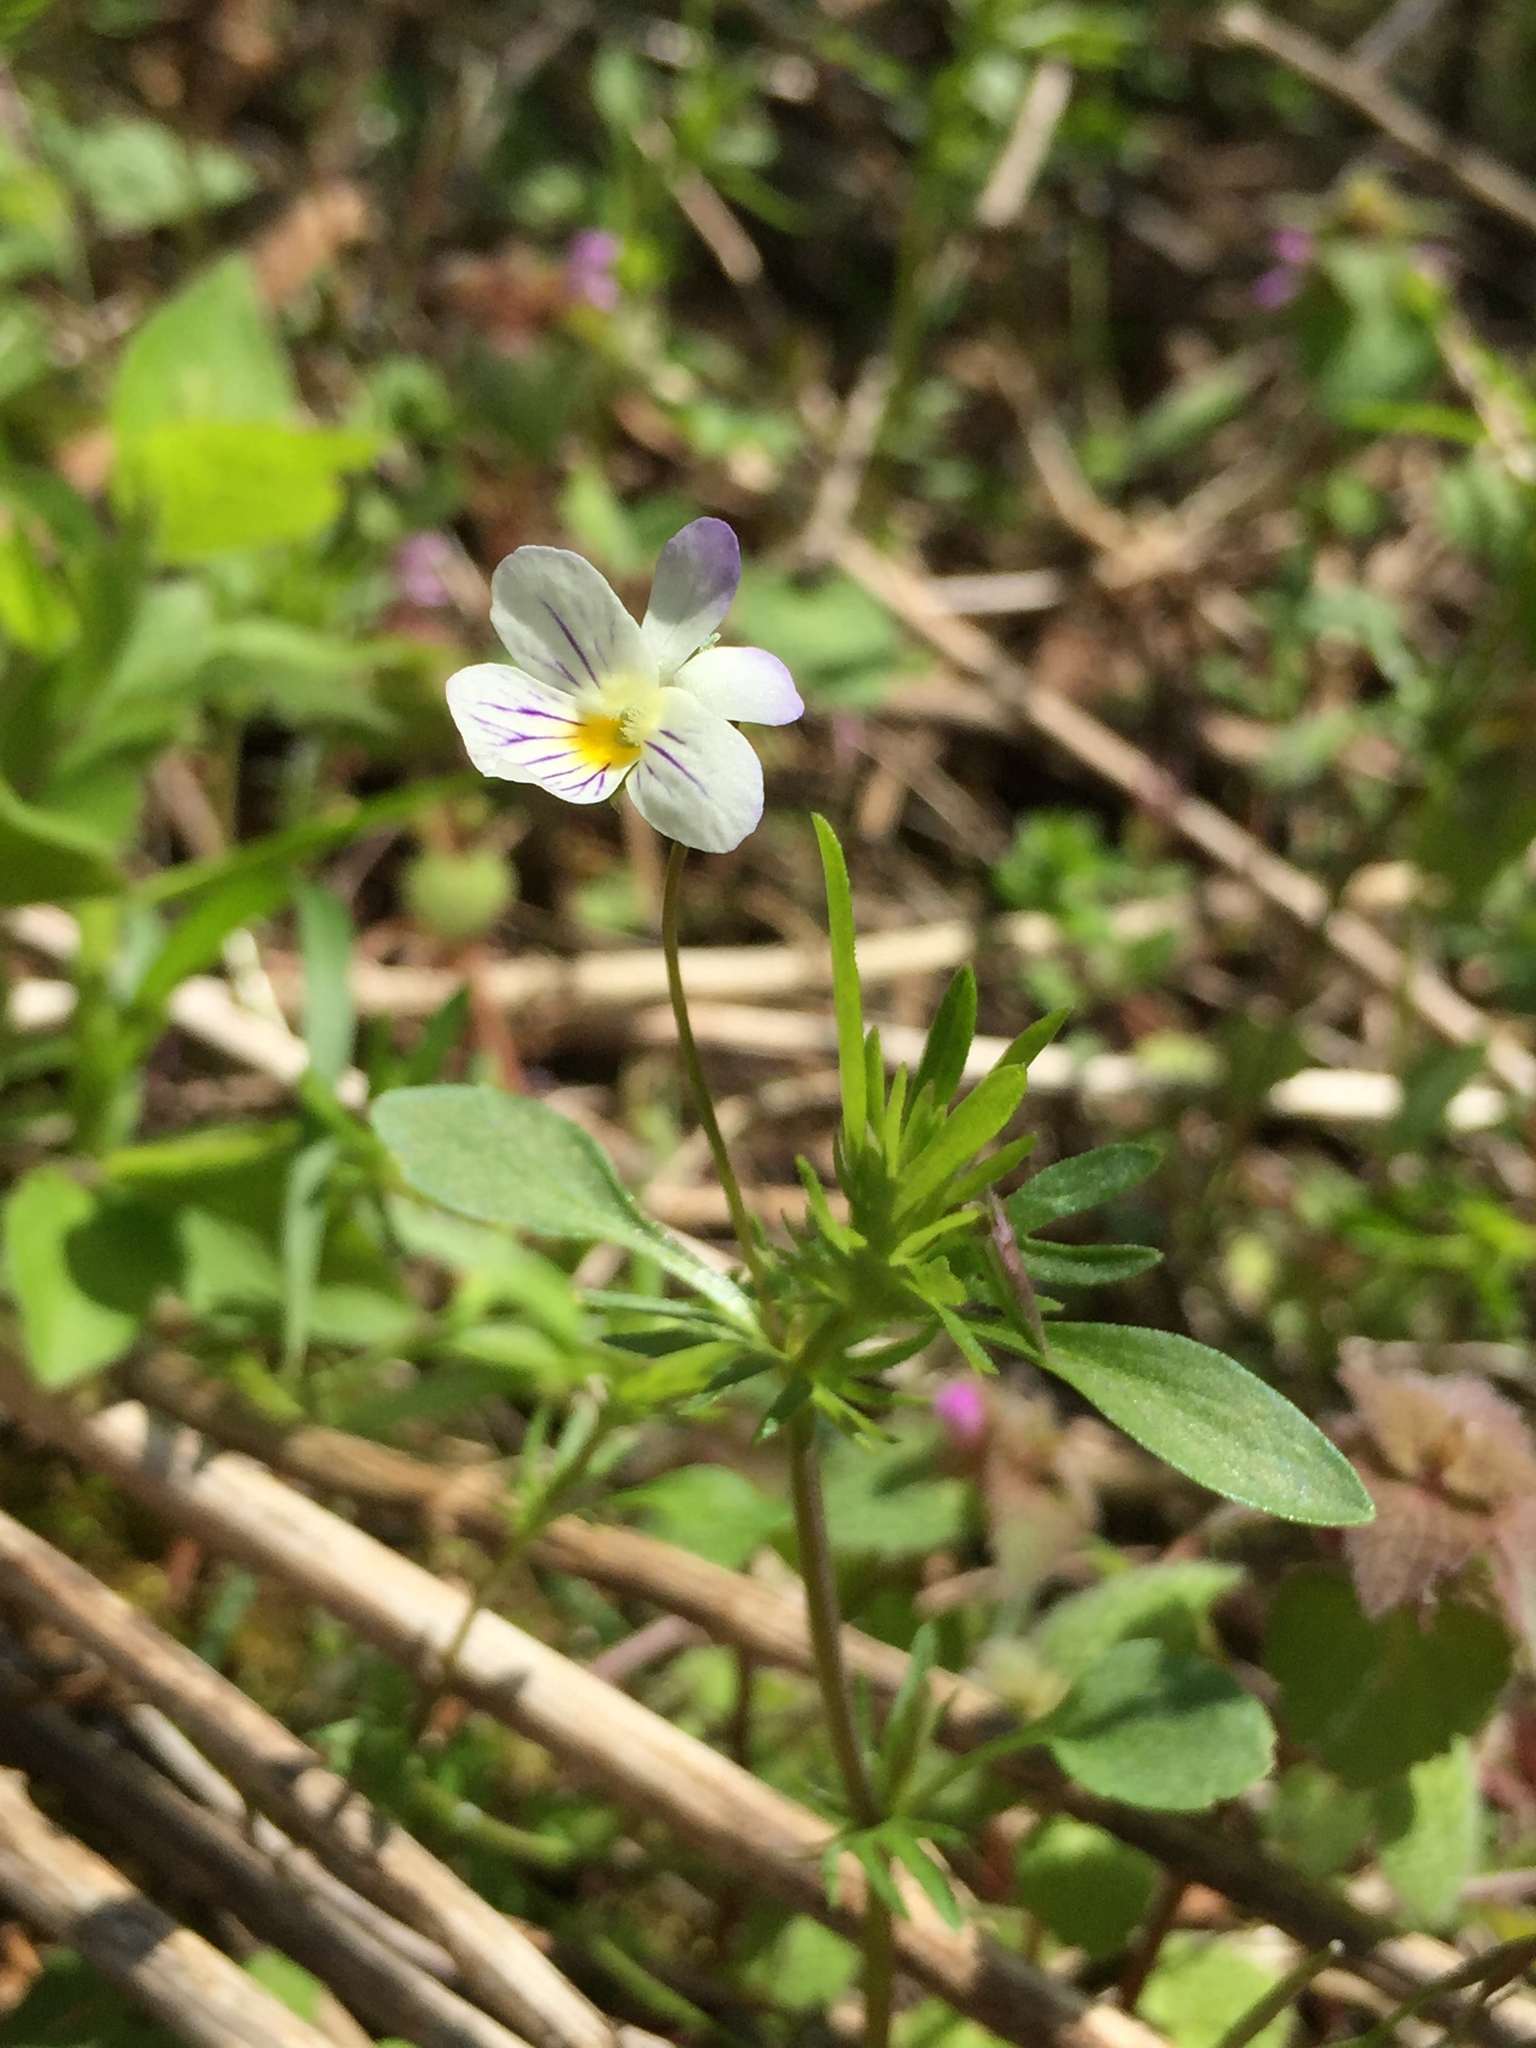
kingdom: Plantae
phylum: Tracheophyta
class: Magnoliopsida
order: Malpighiales
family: Violaceae
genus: Viola
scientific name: Viola rafinesquei
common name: American field pansy
